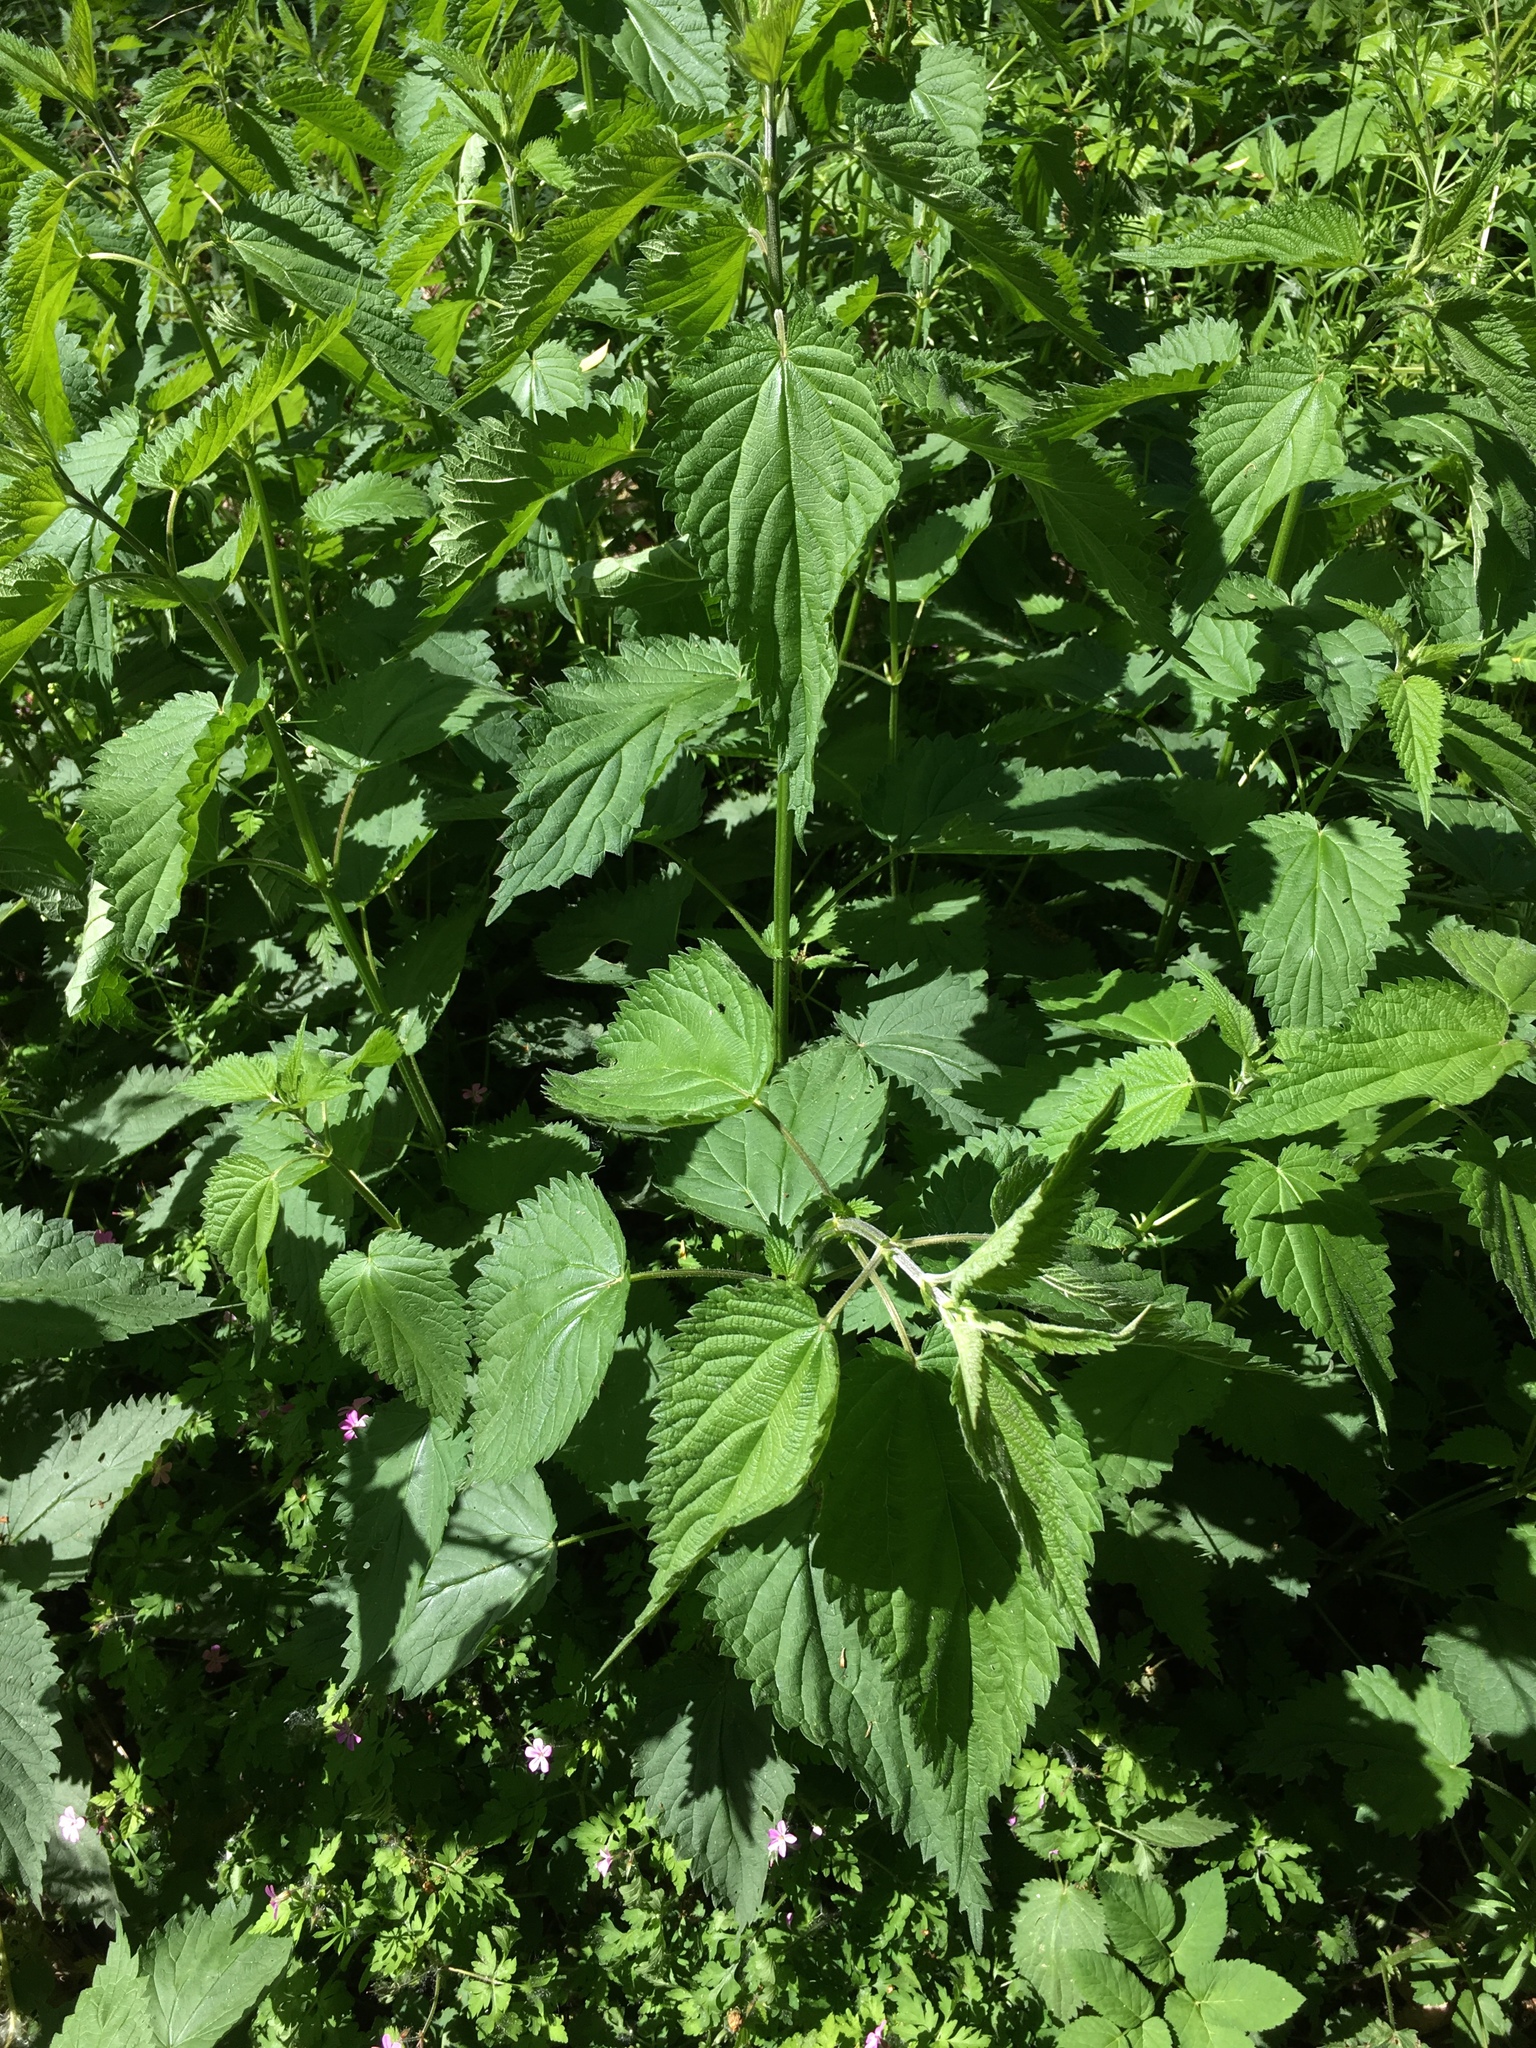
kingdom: Plantae
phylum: Tracheophyta
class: Magnoliopsida
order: Rosales
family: Urticaceae
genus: Urtica
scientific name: Urtica dioica
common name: Common nettle
